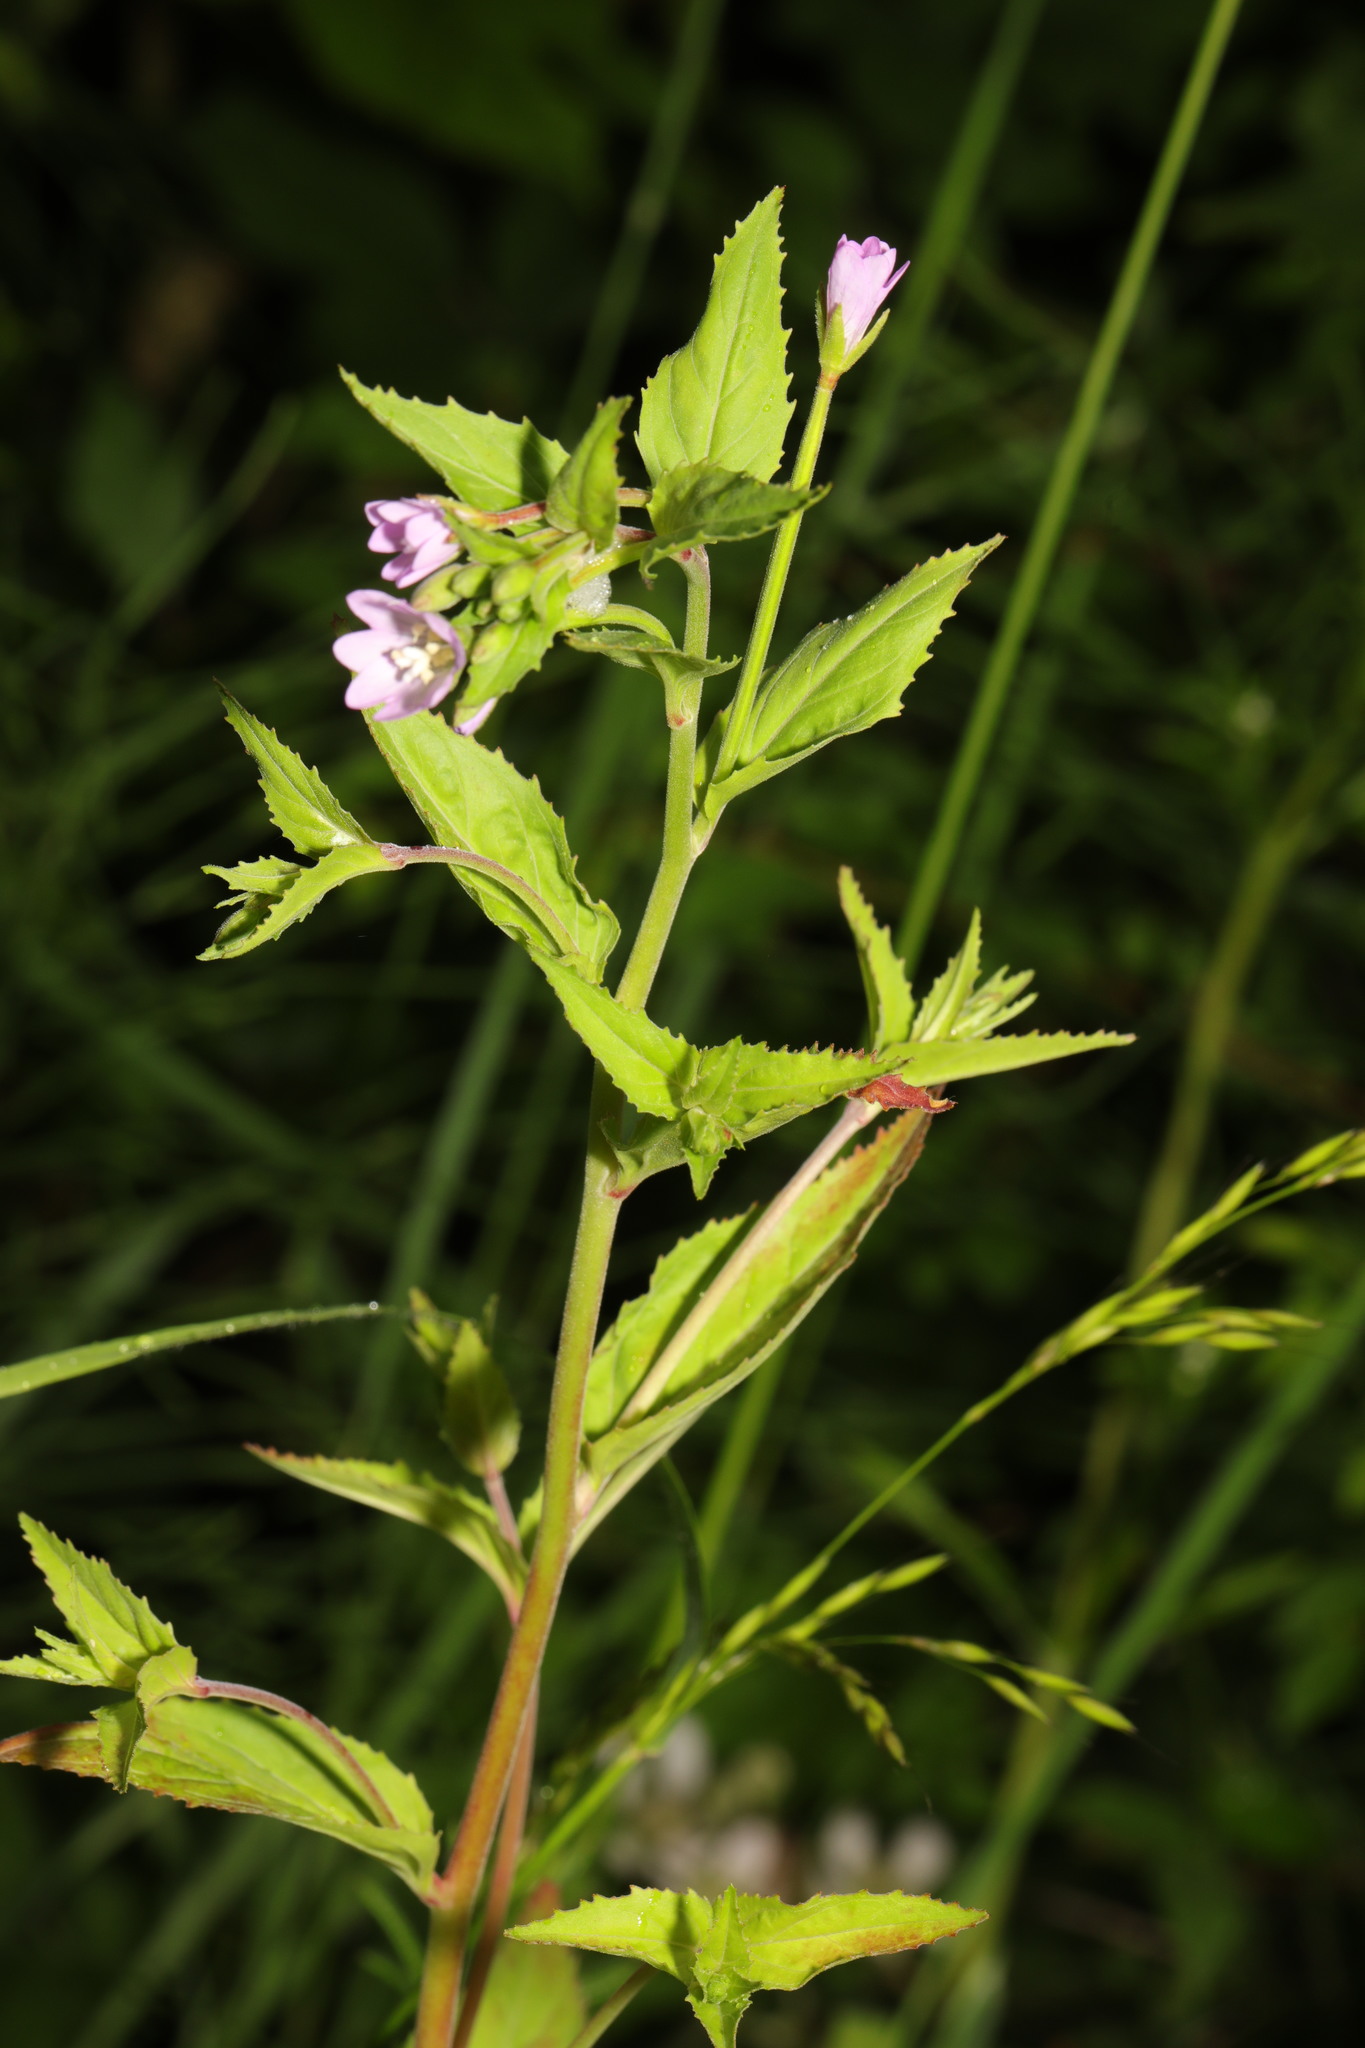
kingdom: Plantae
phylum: Tracheophyta
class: Magnoliopsida
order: Myrtales
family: Onagraceae
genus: Epilobium
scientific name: Epilobium montanum
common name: Broad-leaved willowherb
